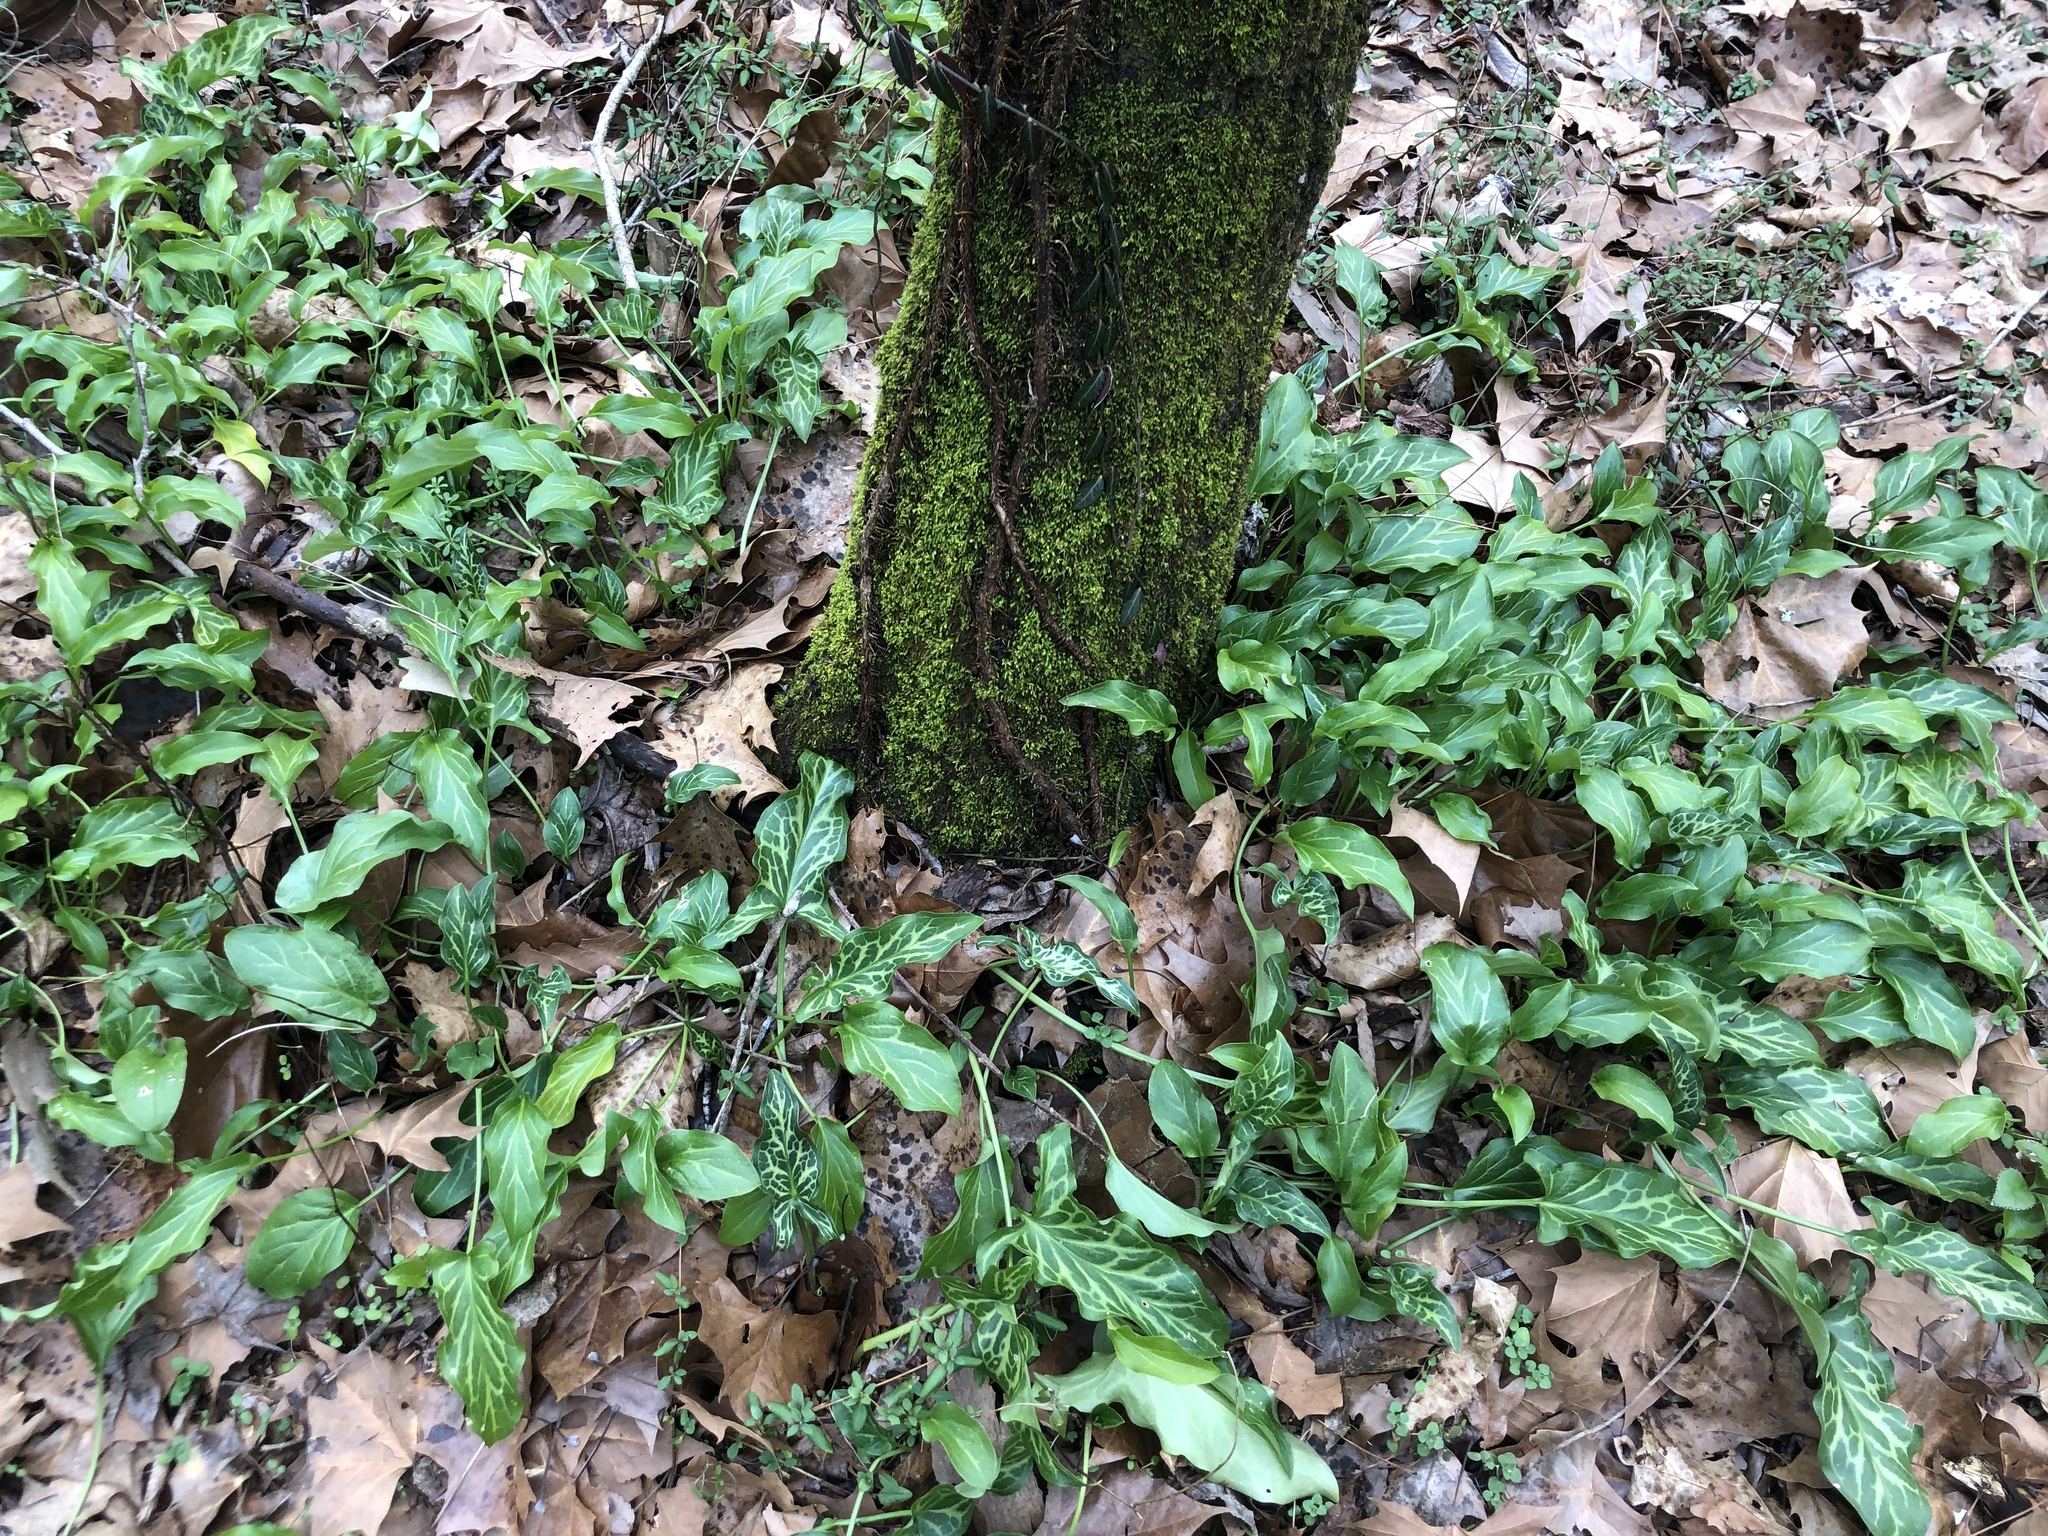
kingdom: Plantae
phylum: Tracheophyta
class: Liliopsida
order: Alismatales
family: Araceae
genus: Arum
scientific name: Arum italicum
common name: Italian lords-and-ladies
